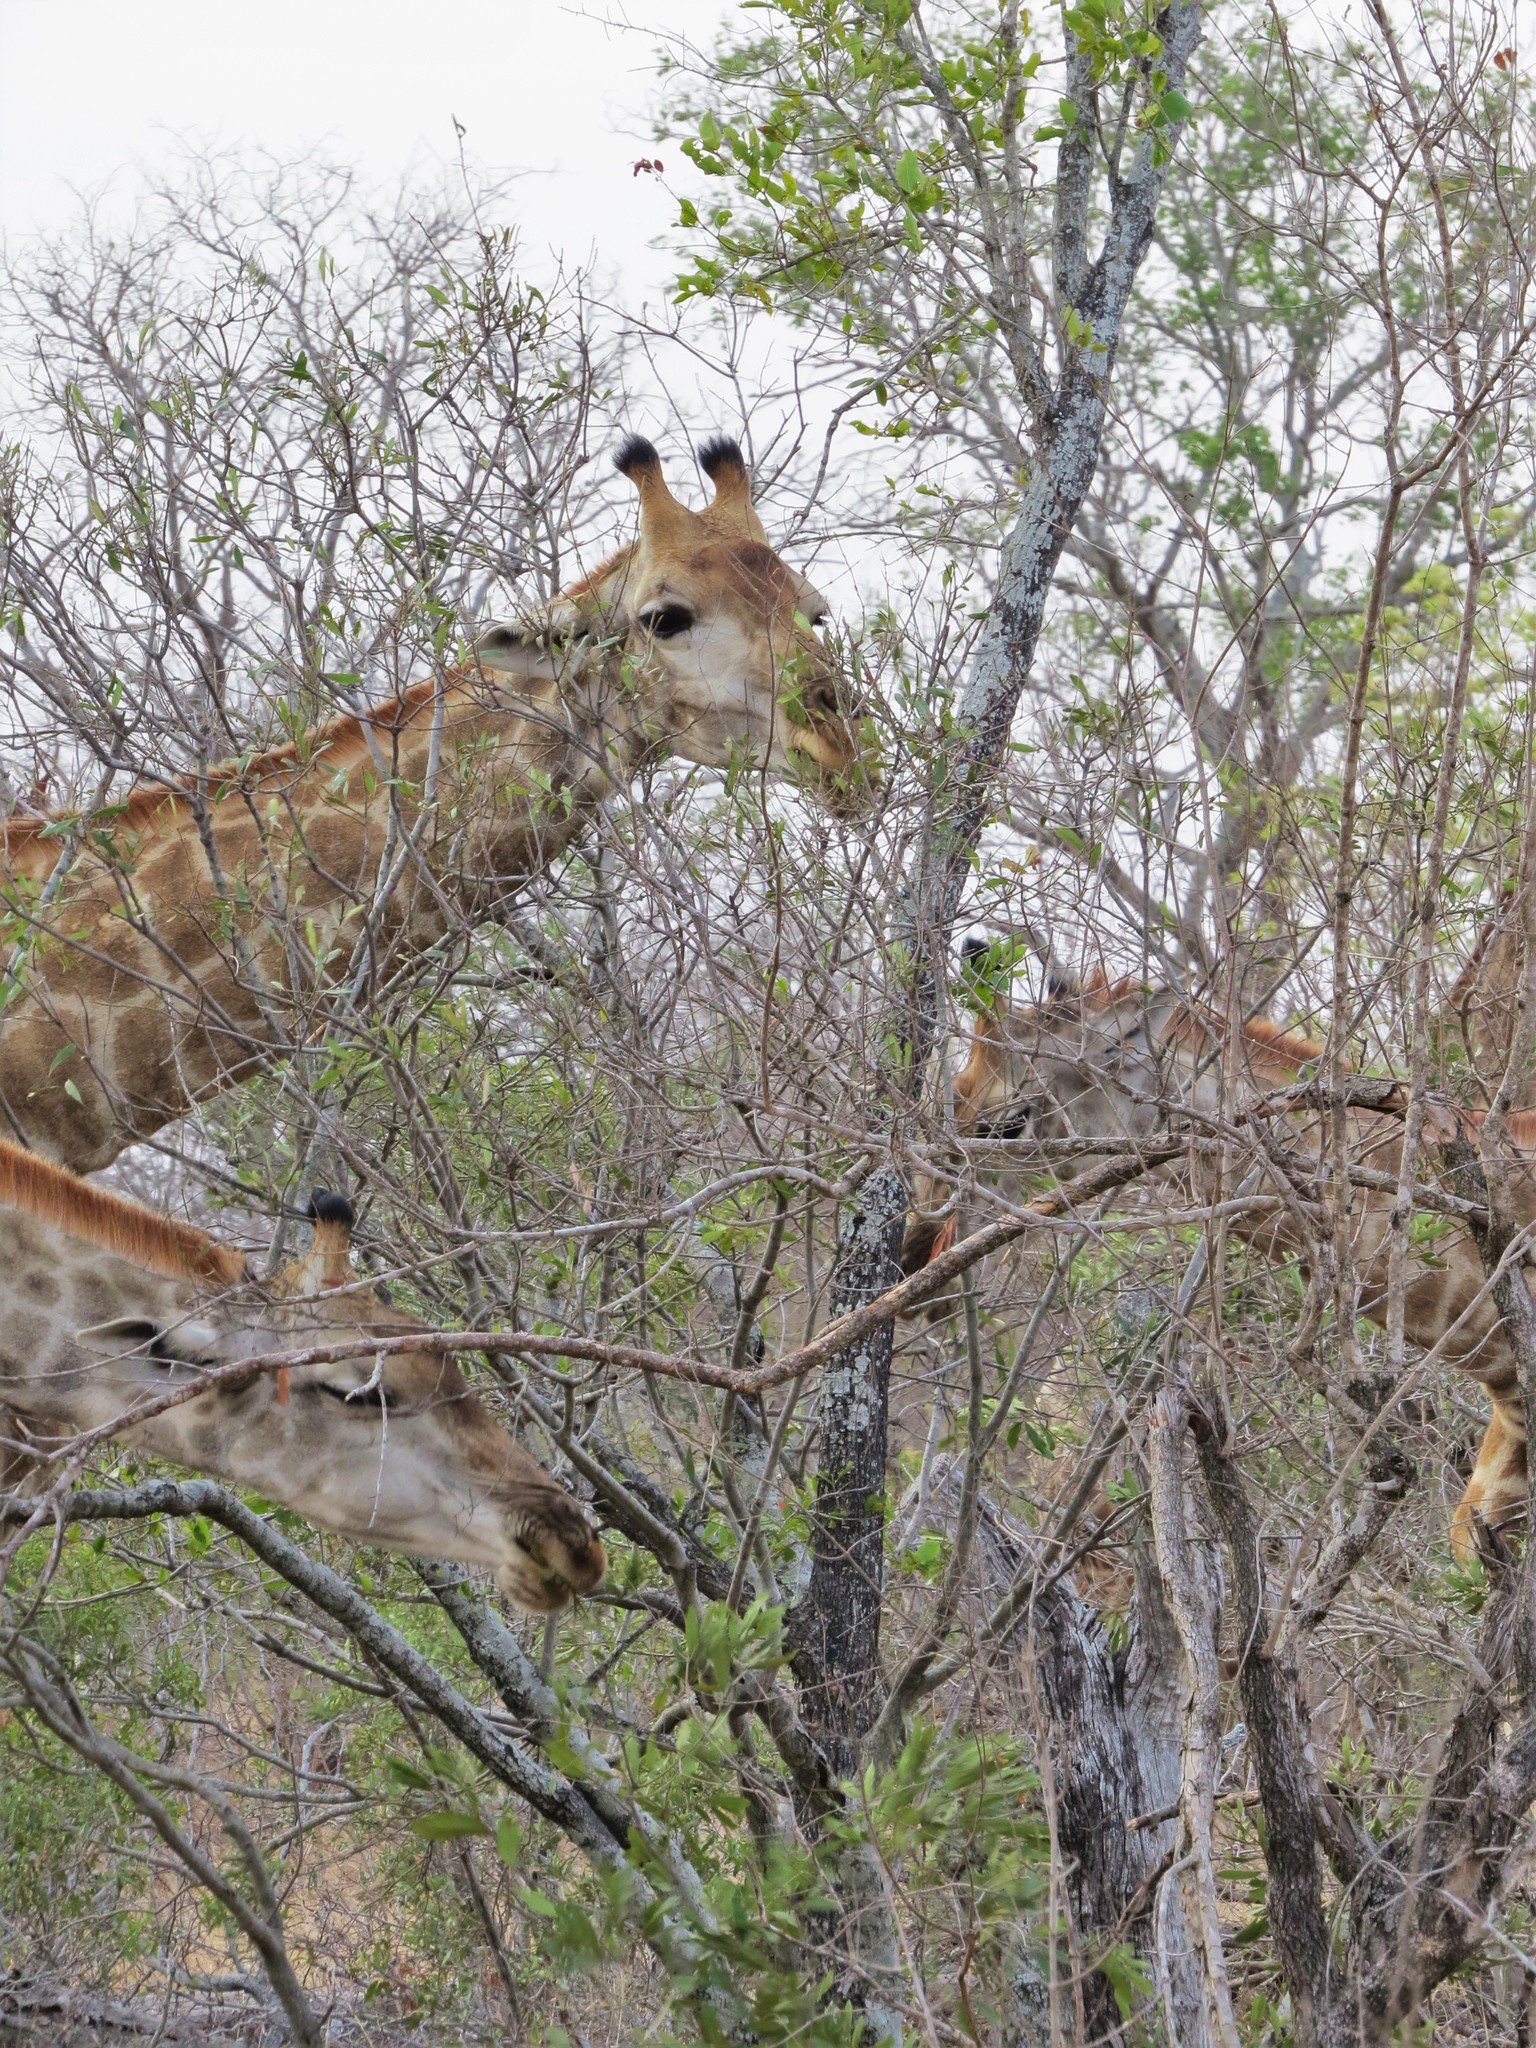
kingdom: Animalia
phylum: Chordata
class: Mammalia
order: Artiodactyla
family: Giraffidae
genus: Giraffa
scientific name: Giraffa giraffa
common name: Southern giraffe
